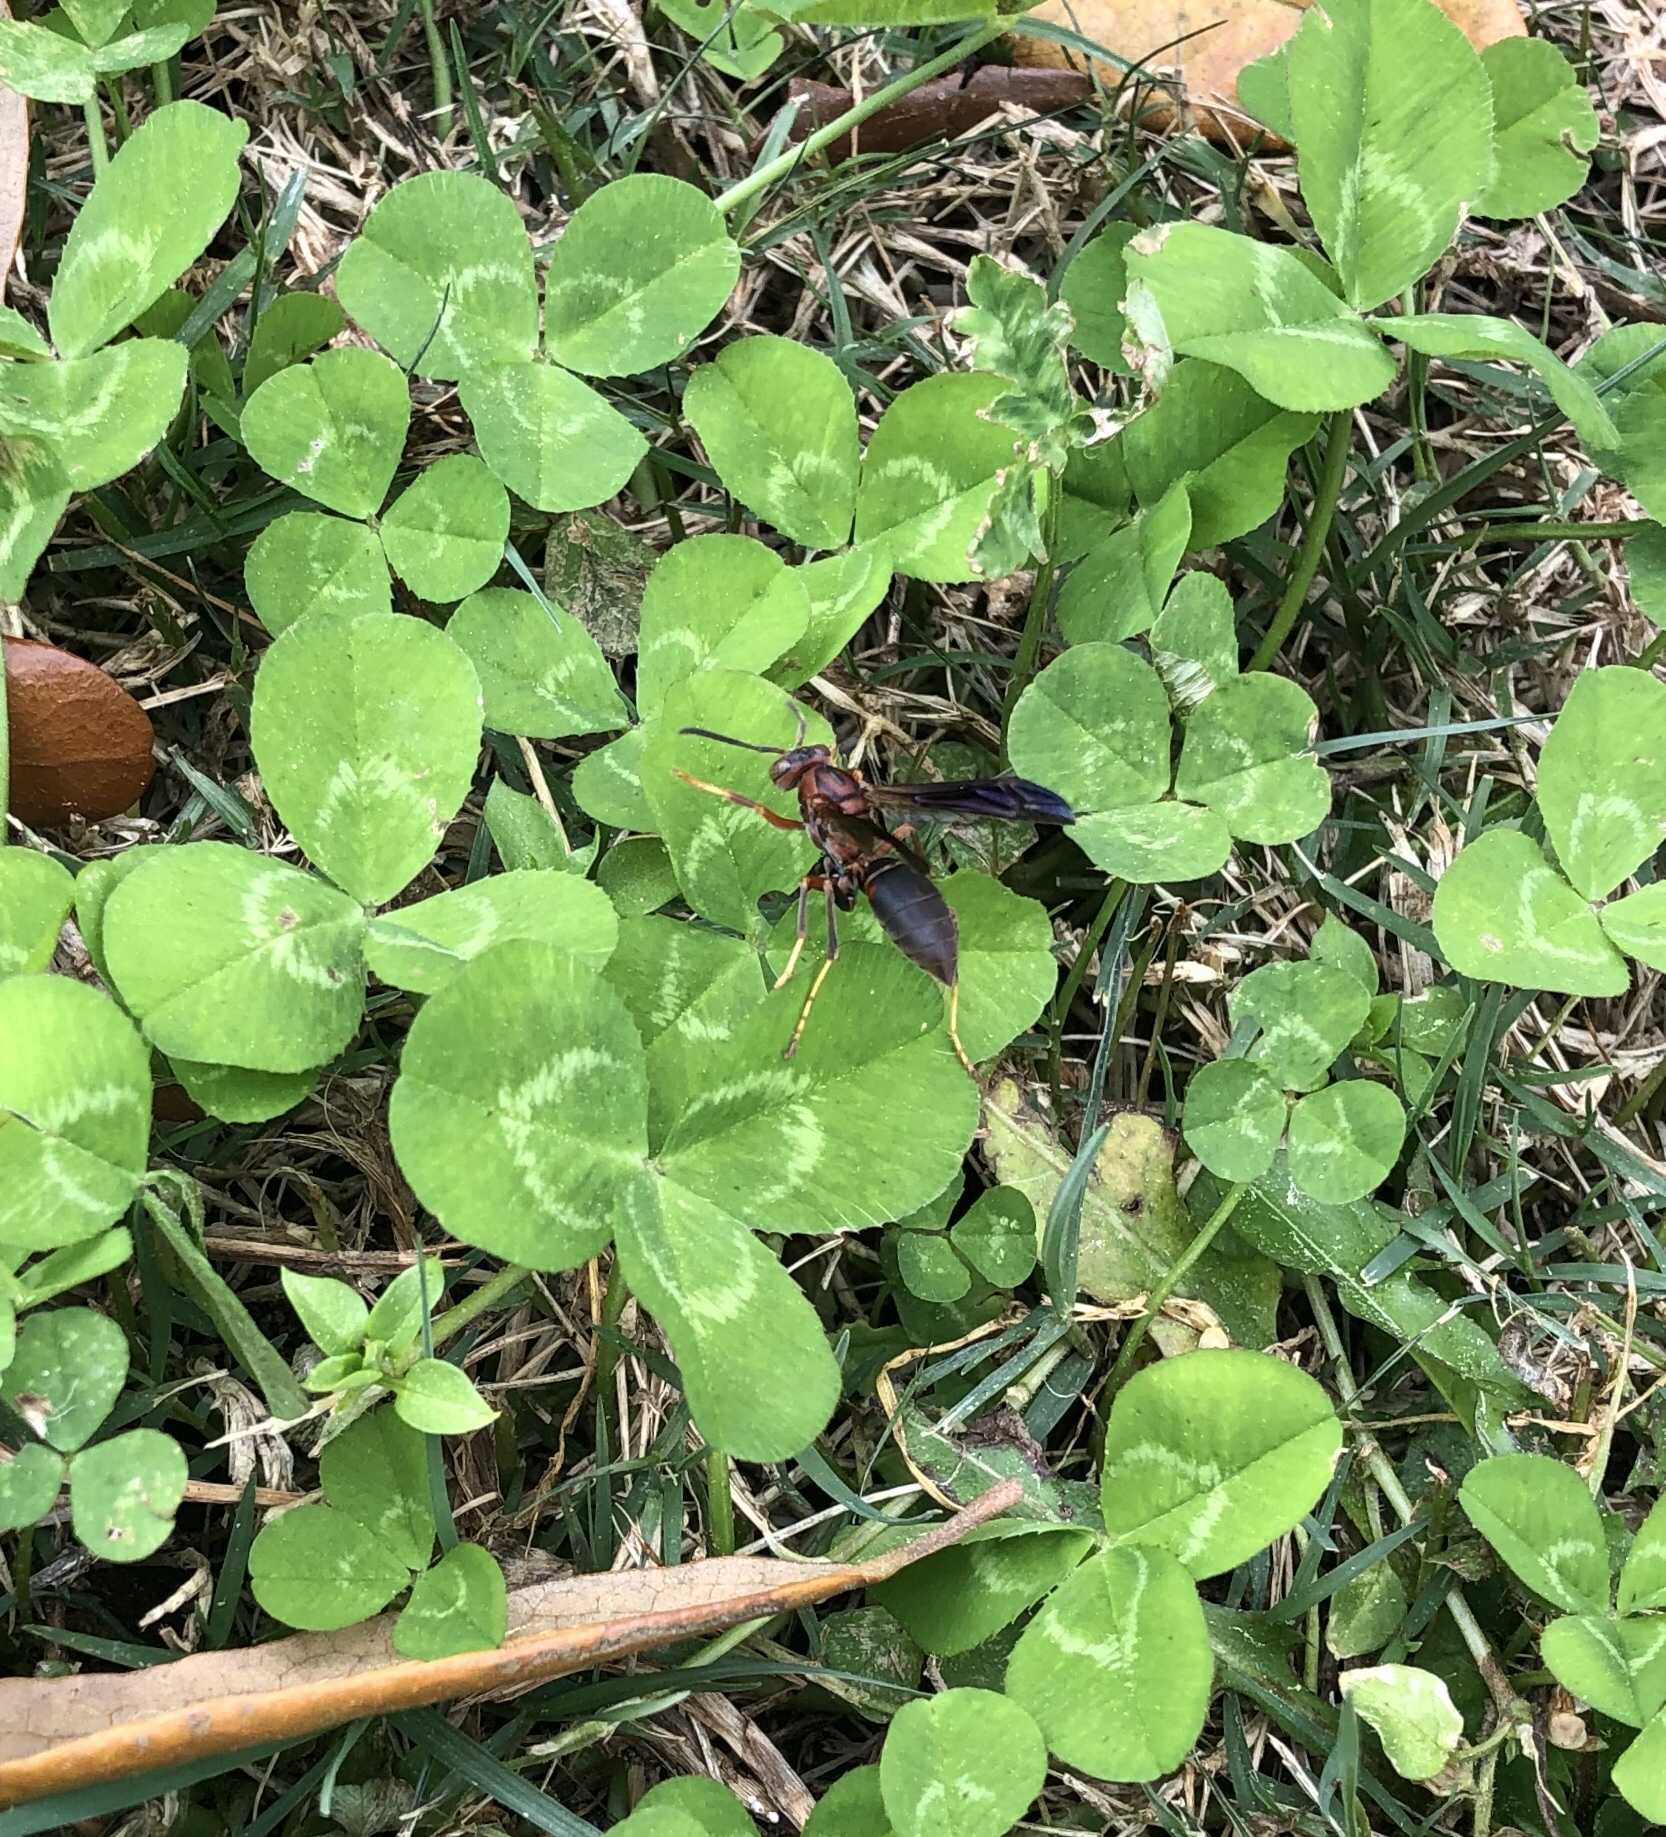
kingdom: Animalia
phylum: Arthropoda
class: Insecta
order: Hymenoptera
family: Vespidae
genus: Fuscopolistes
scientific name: Fuscopolistes
